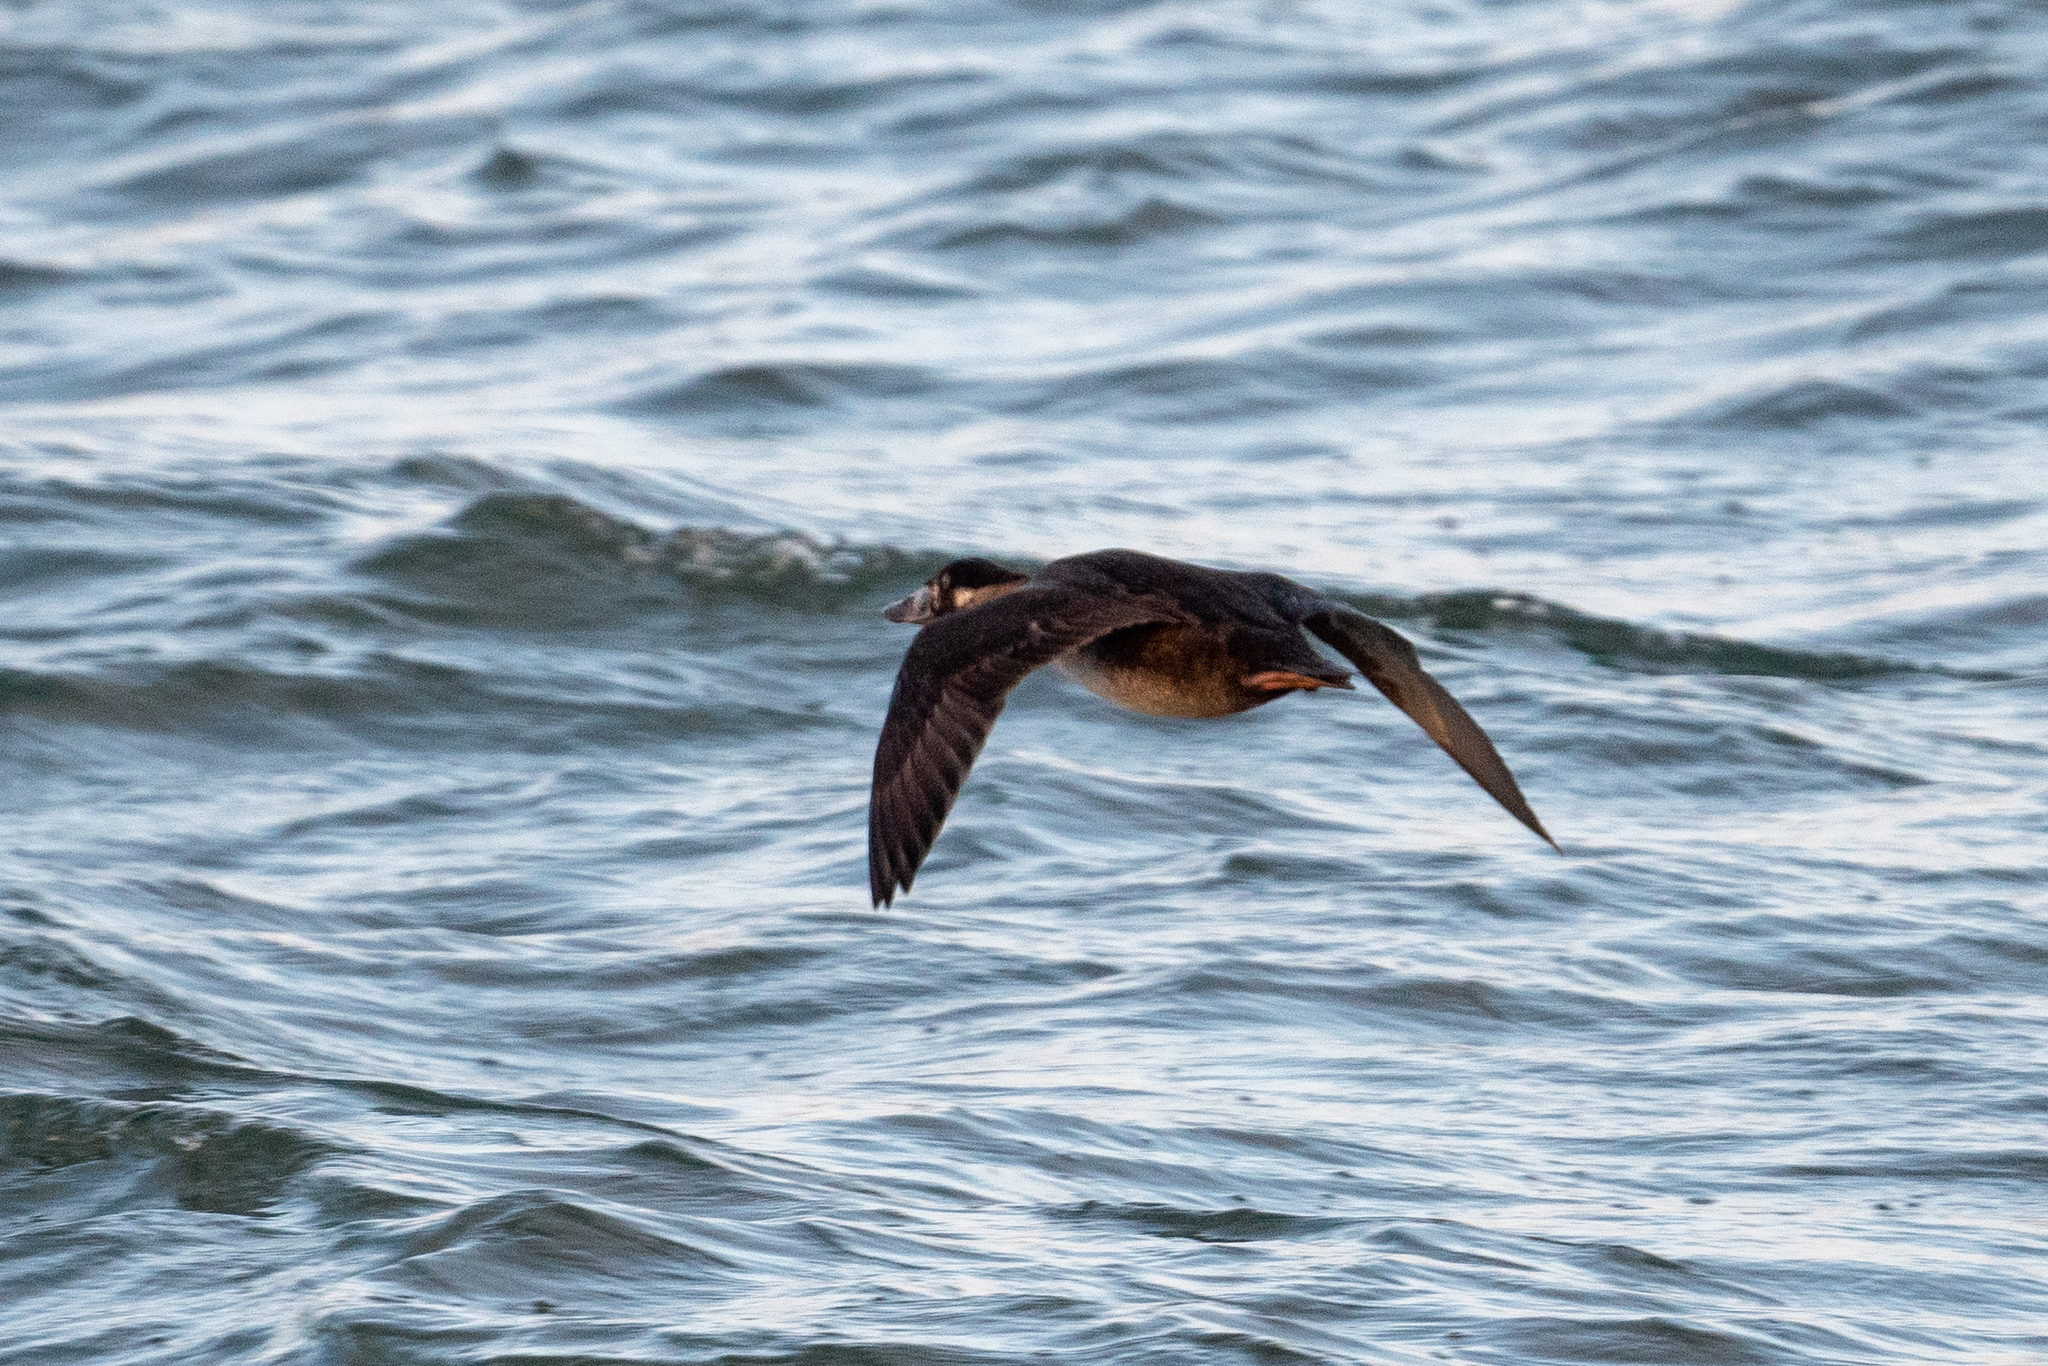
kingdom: Animalia
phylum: Chordata
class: Aves
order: Anseriformes
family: Anatidae
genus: Melanitta
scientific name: Melanitta perspicillata
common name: Surf scoter
